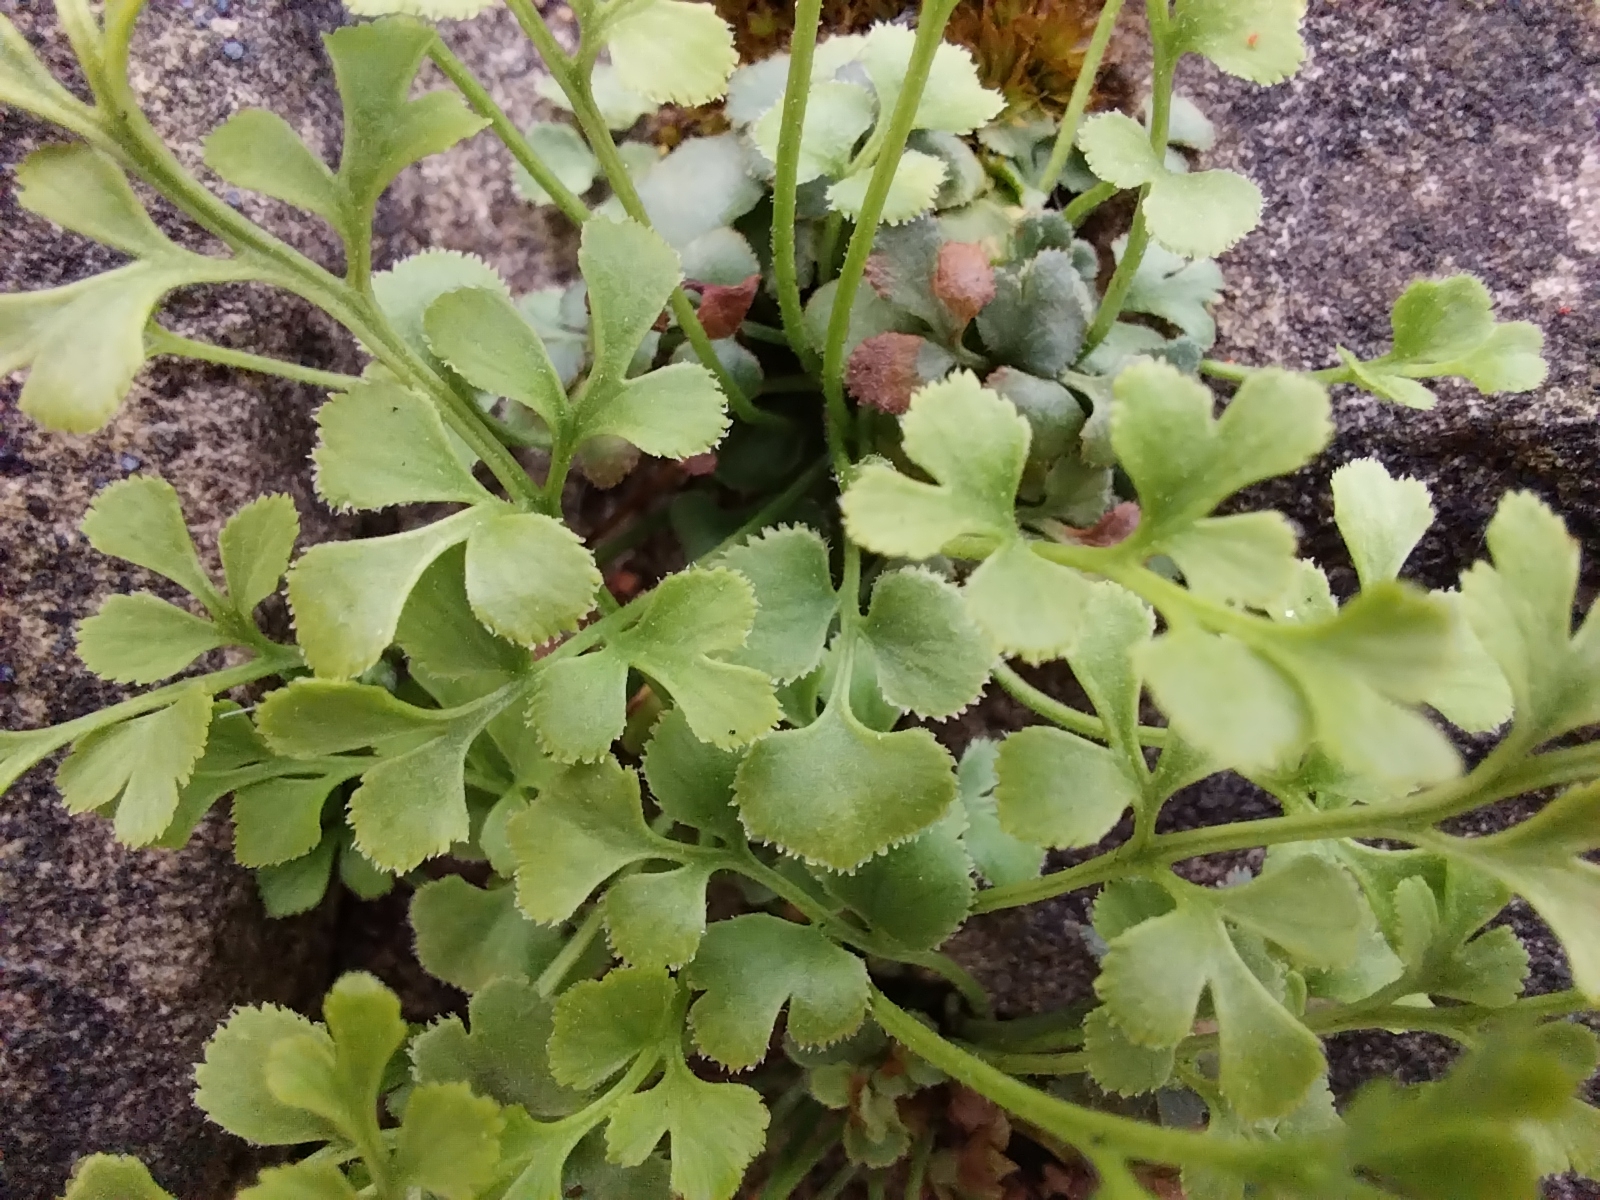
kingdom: Plantae
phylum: Tracheophyta
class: Polypodiopsida
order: Polypodiales
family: Aspleniaceae
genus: Asplenium
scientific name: Asplenium ruta-muraria
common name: Wall-rue
